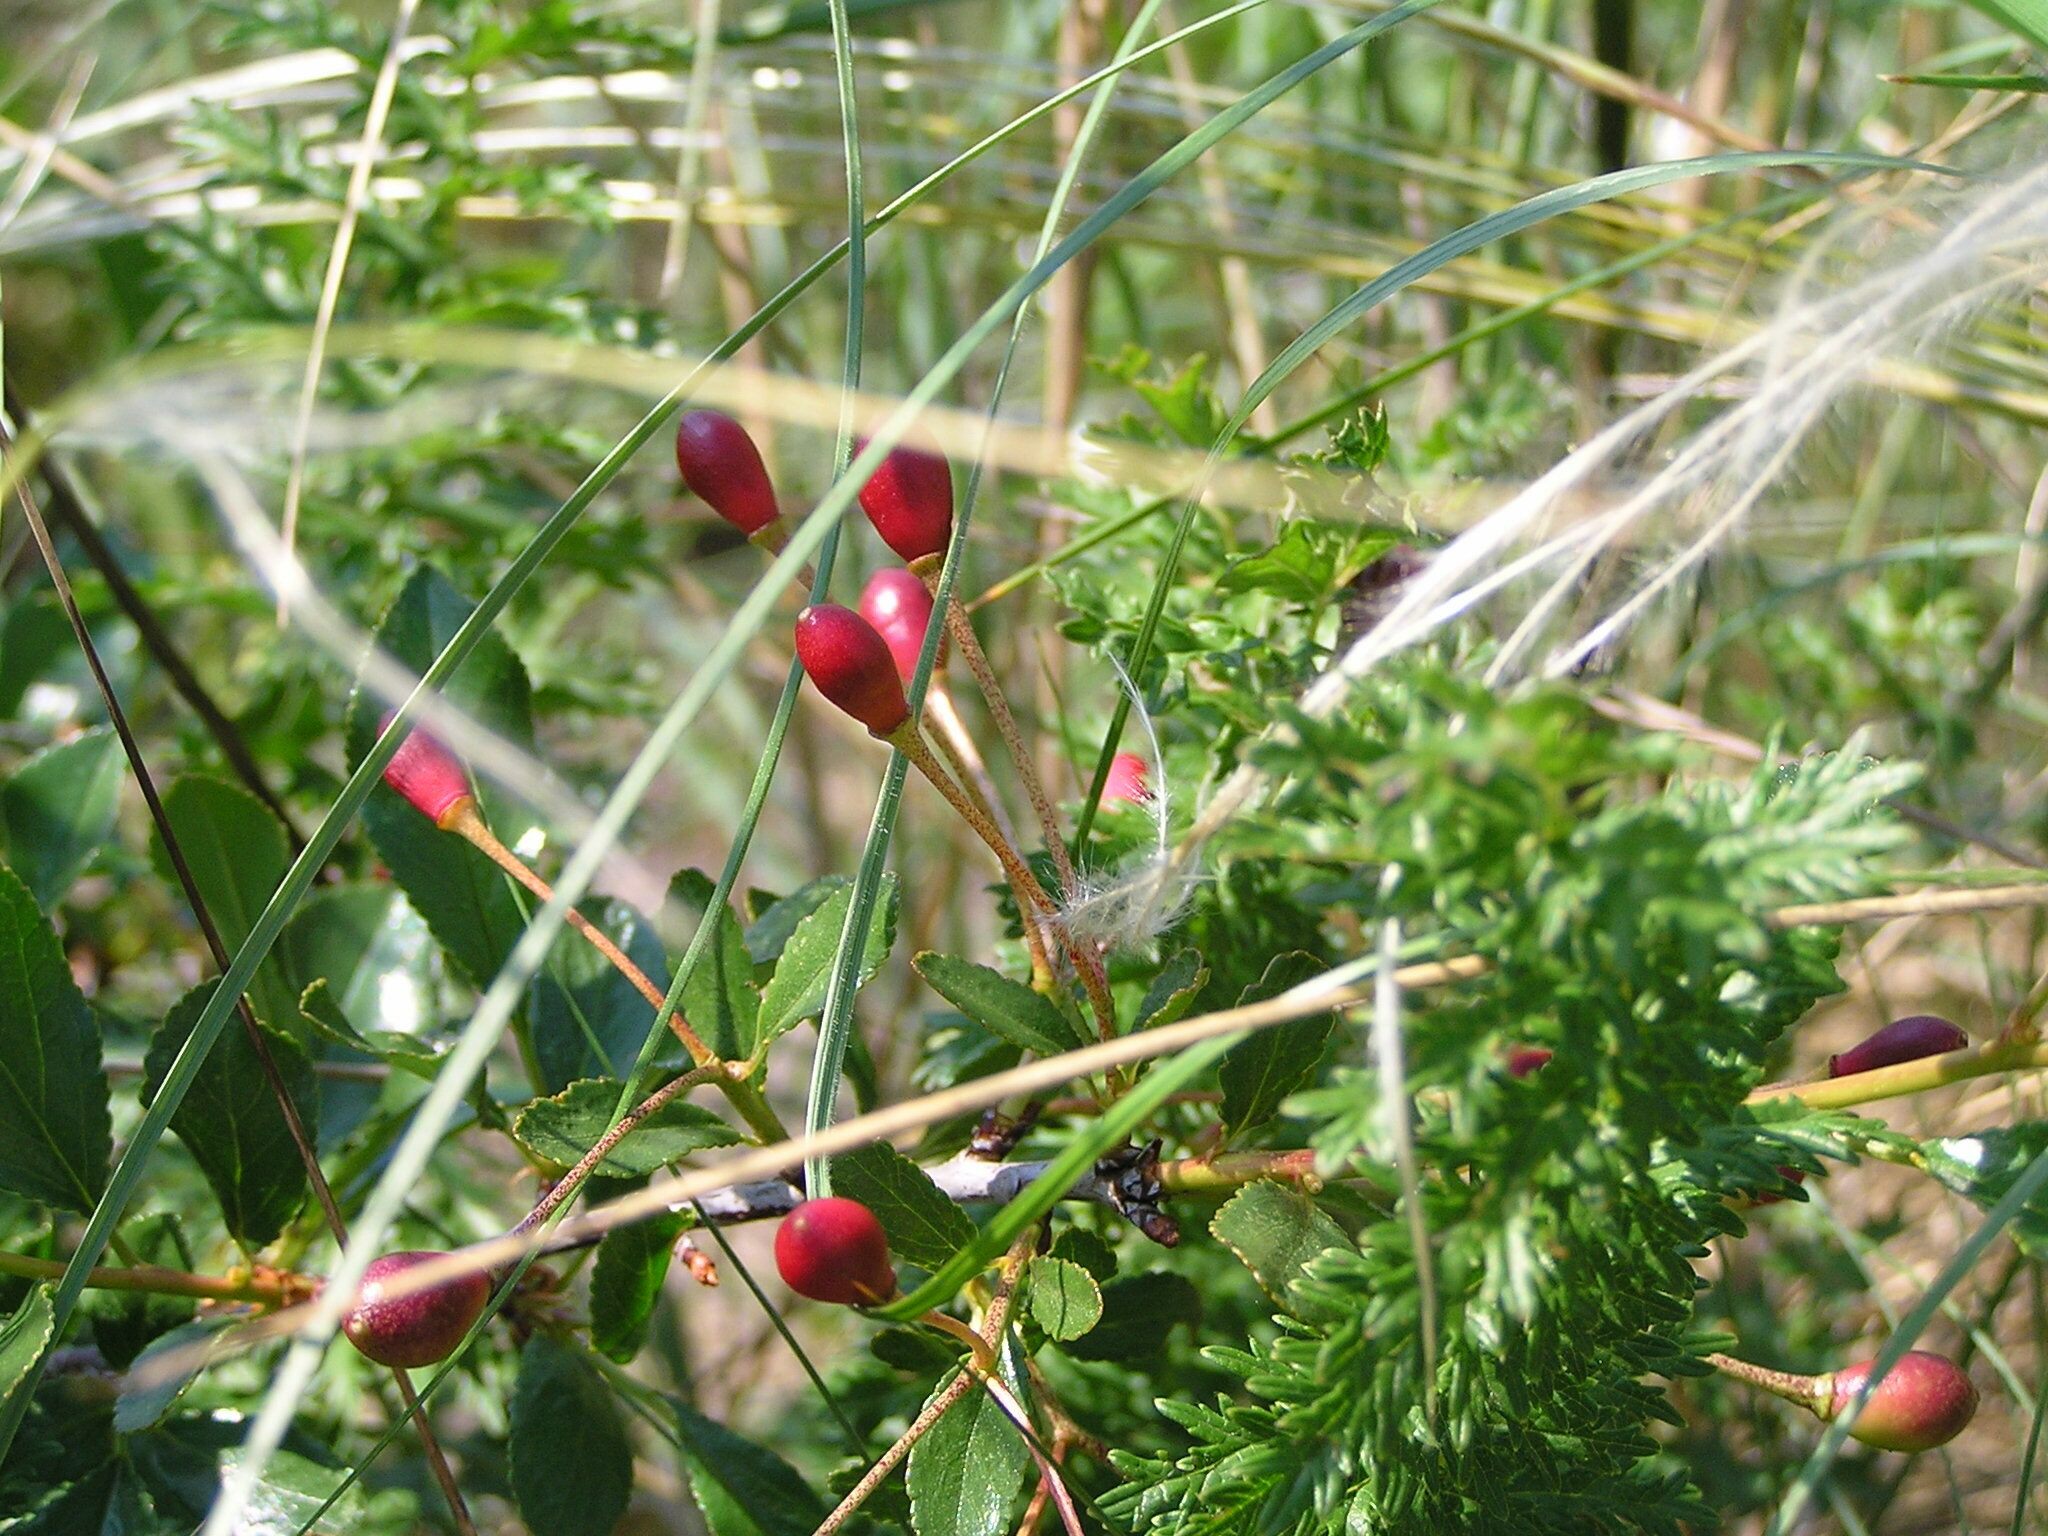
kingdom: Plantae
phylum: Tracheophyta
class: Magnoliopsida
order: Rosales
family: Rosaceae
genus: Prunus
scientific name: Prunus fruticosa
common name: European dwarf cherry
